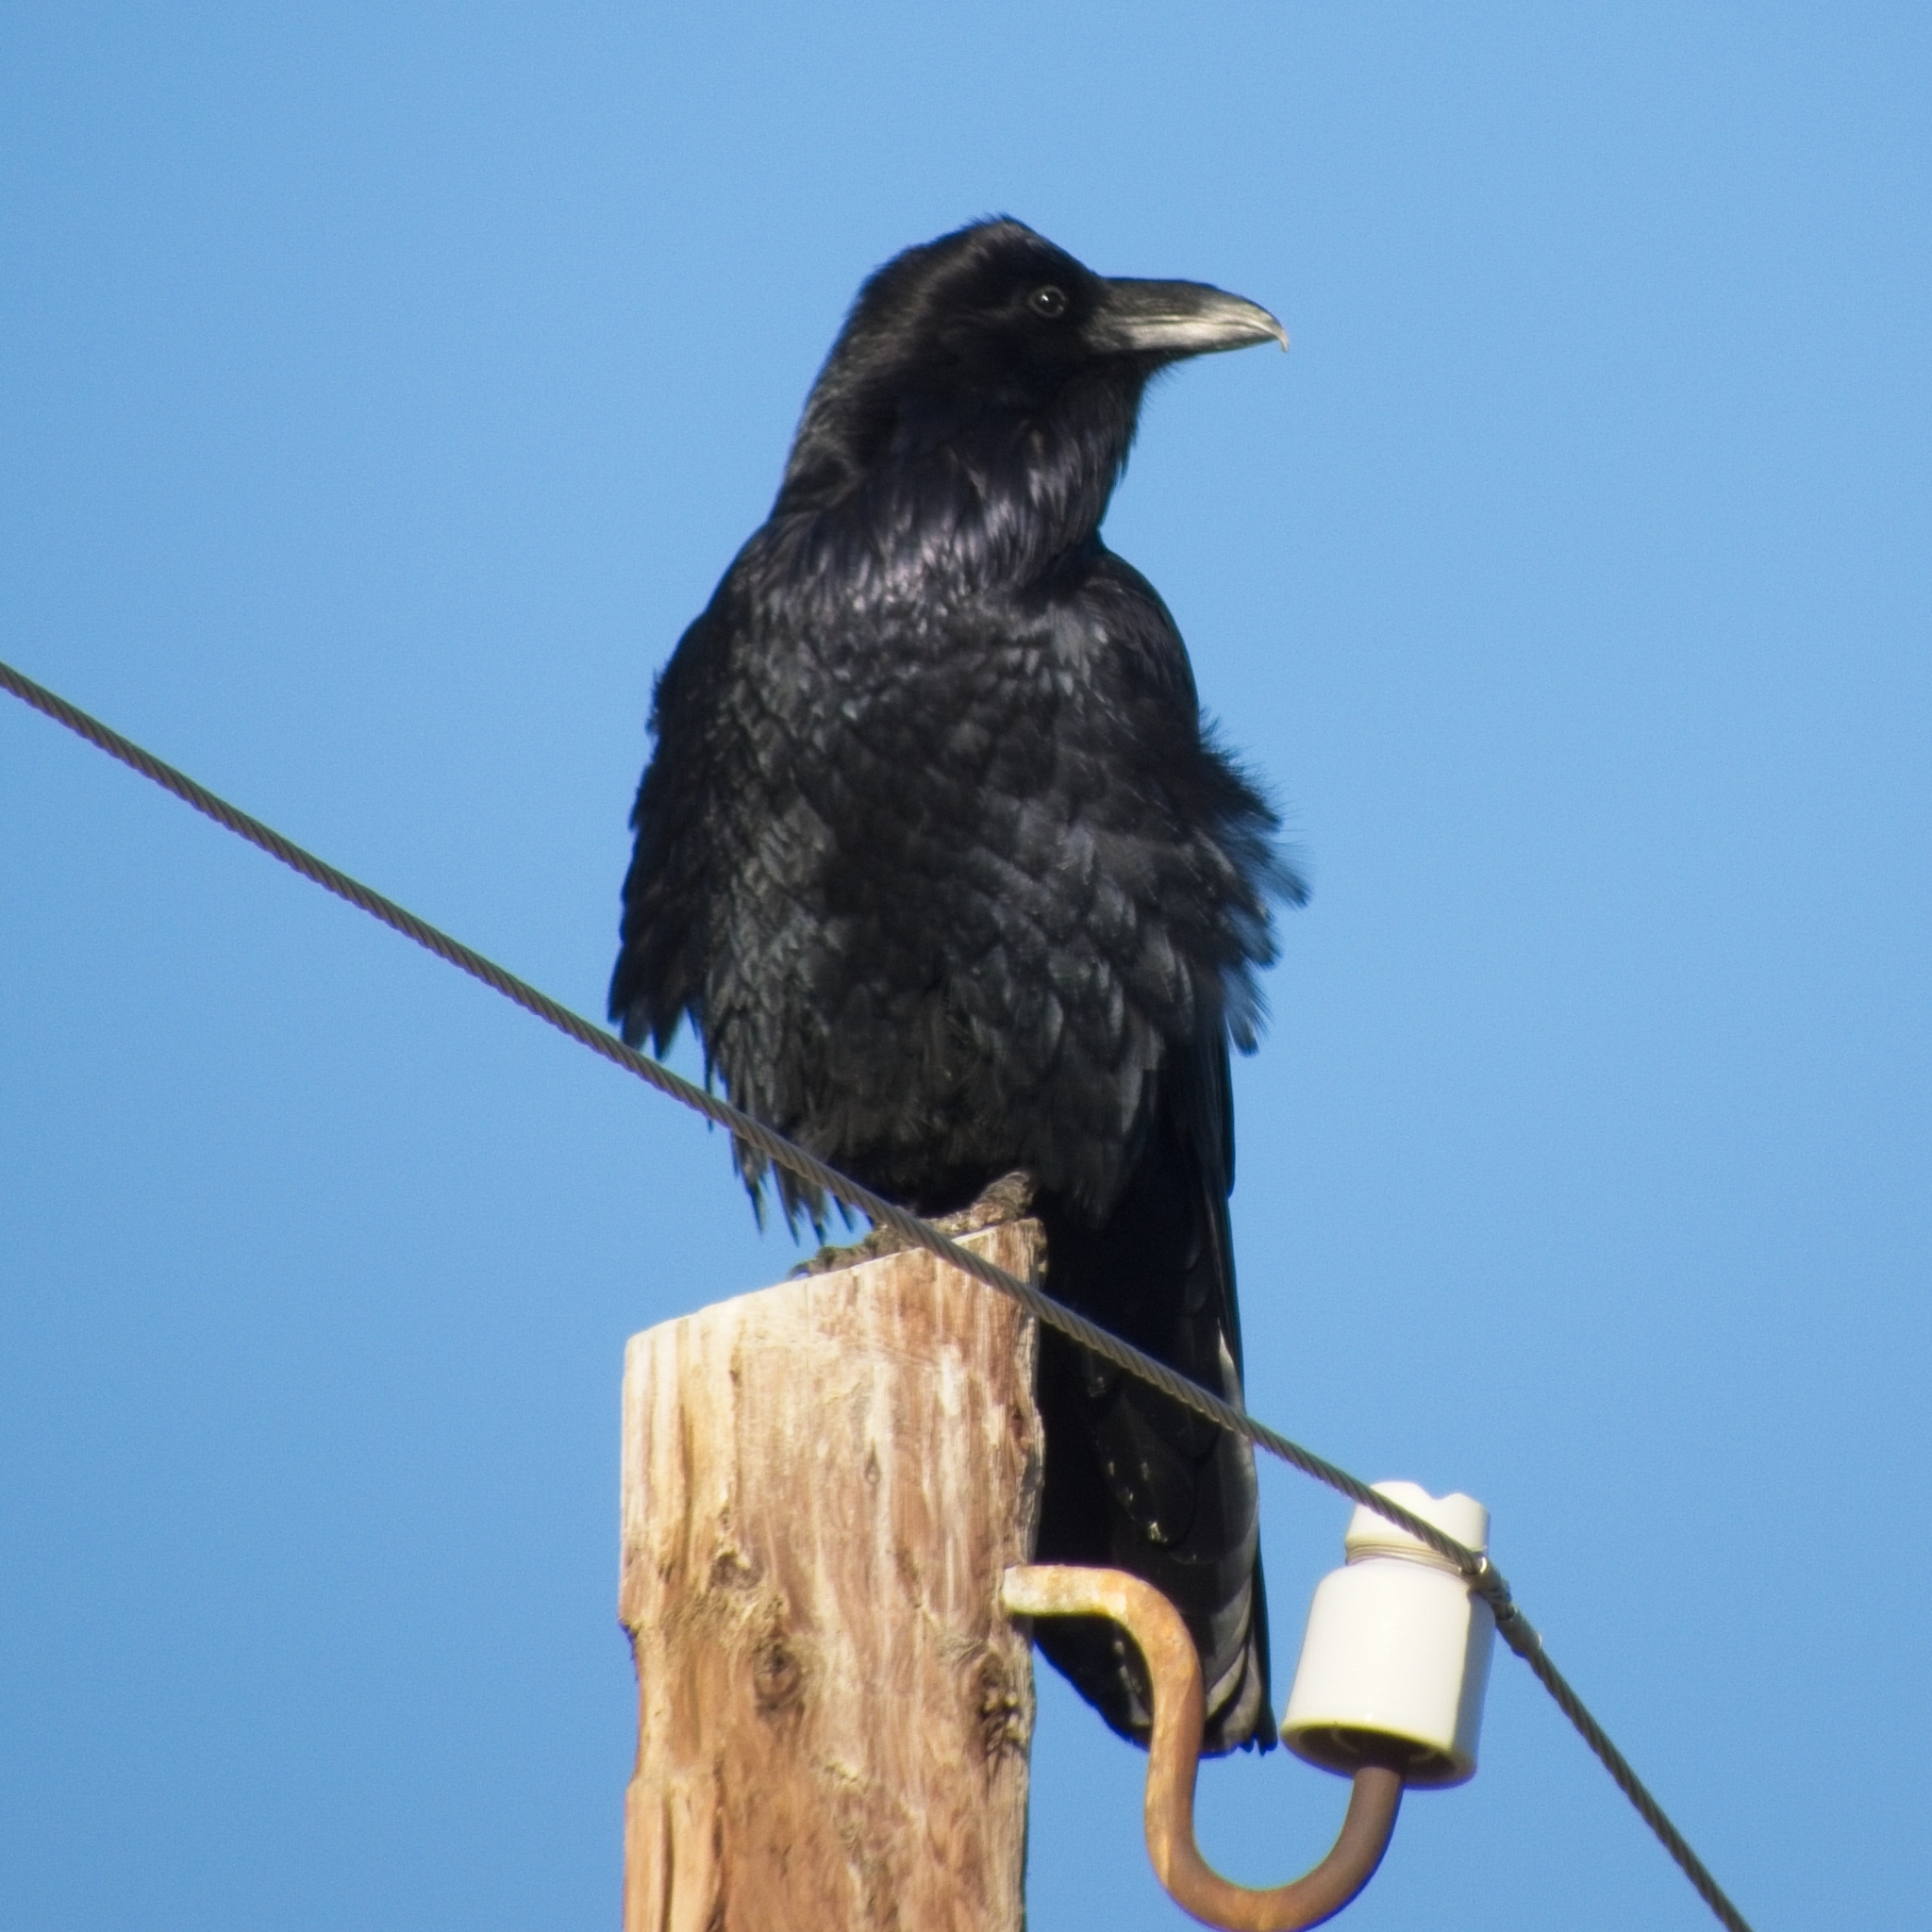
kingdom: Animalia
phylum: Chordata
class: Aves
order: Passeriformes
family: Corvidae
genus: Corvus
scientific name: Corvus corax
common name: Common raven
